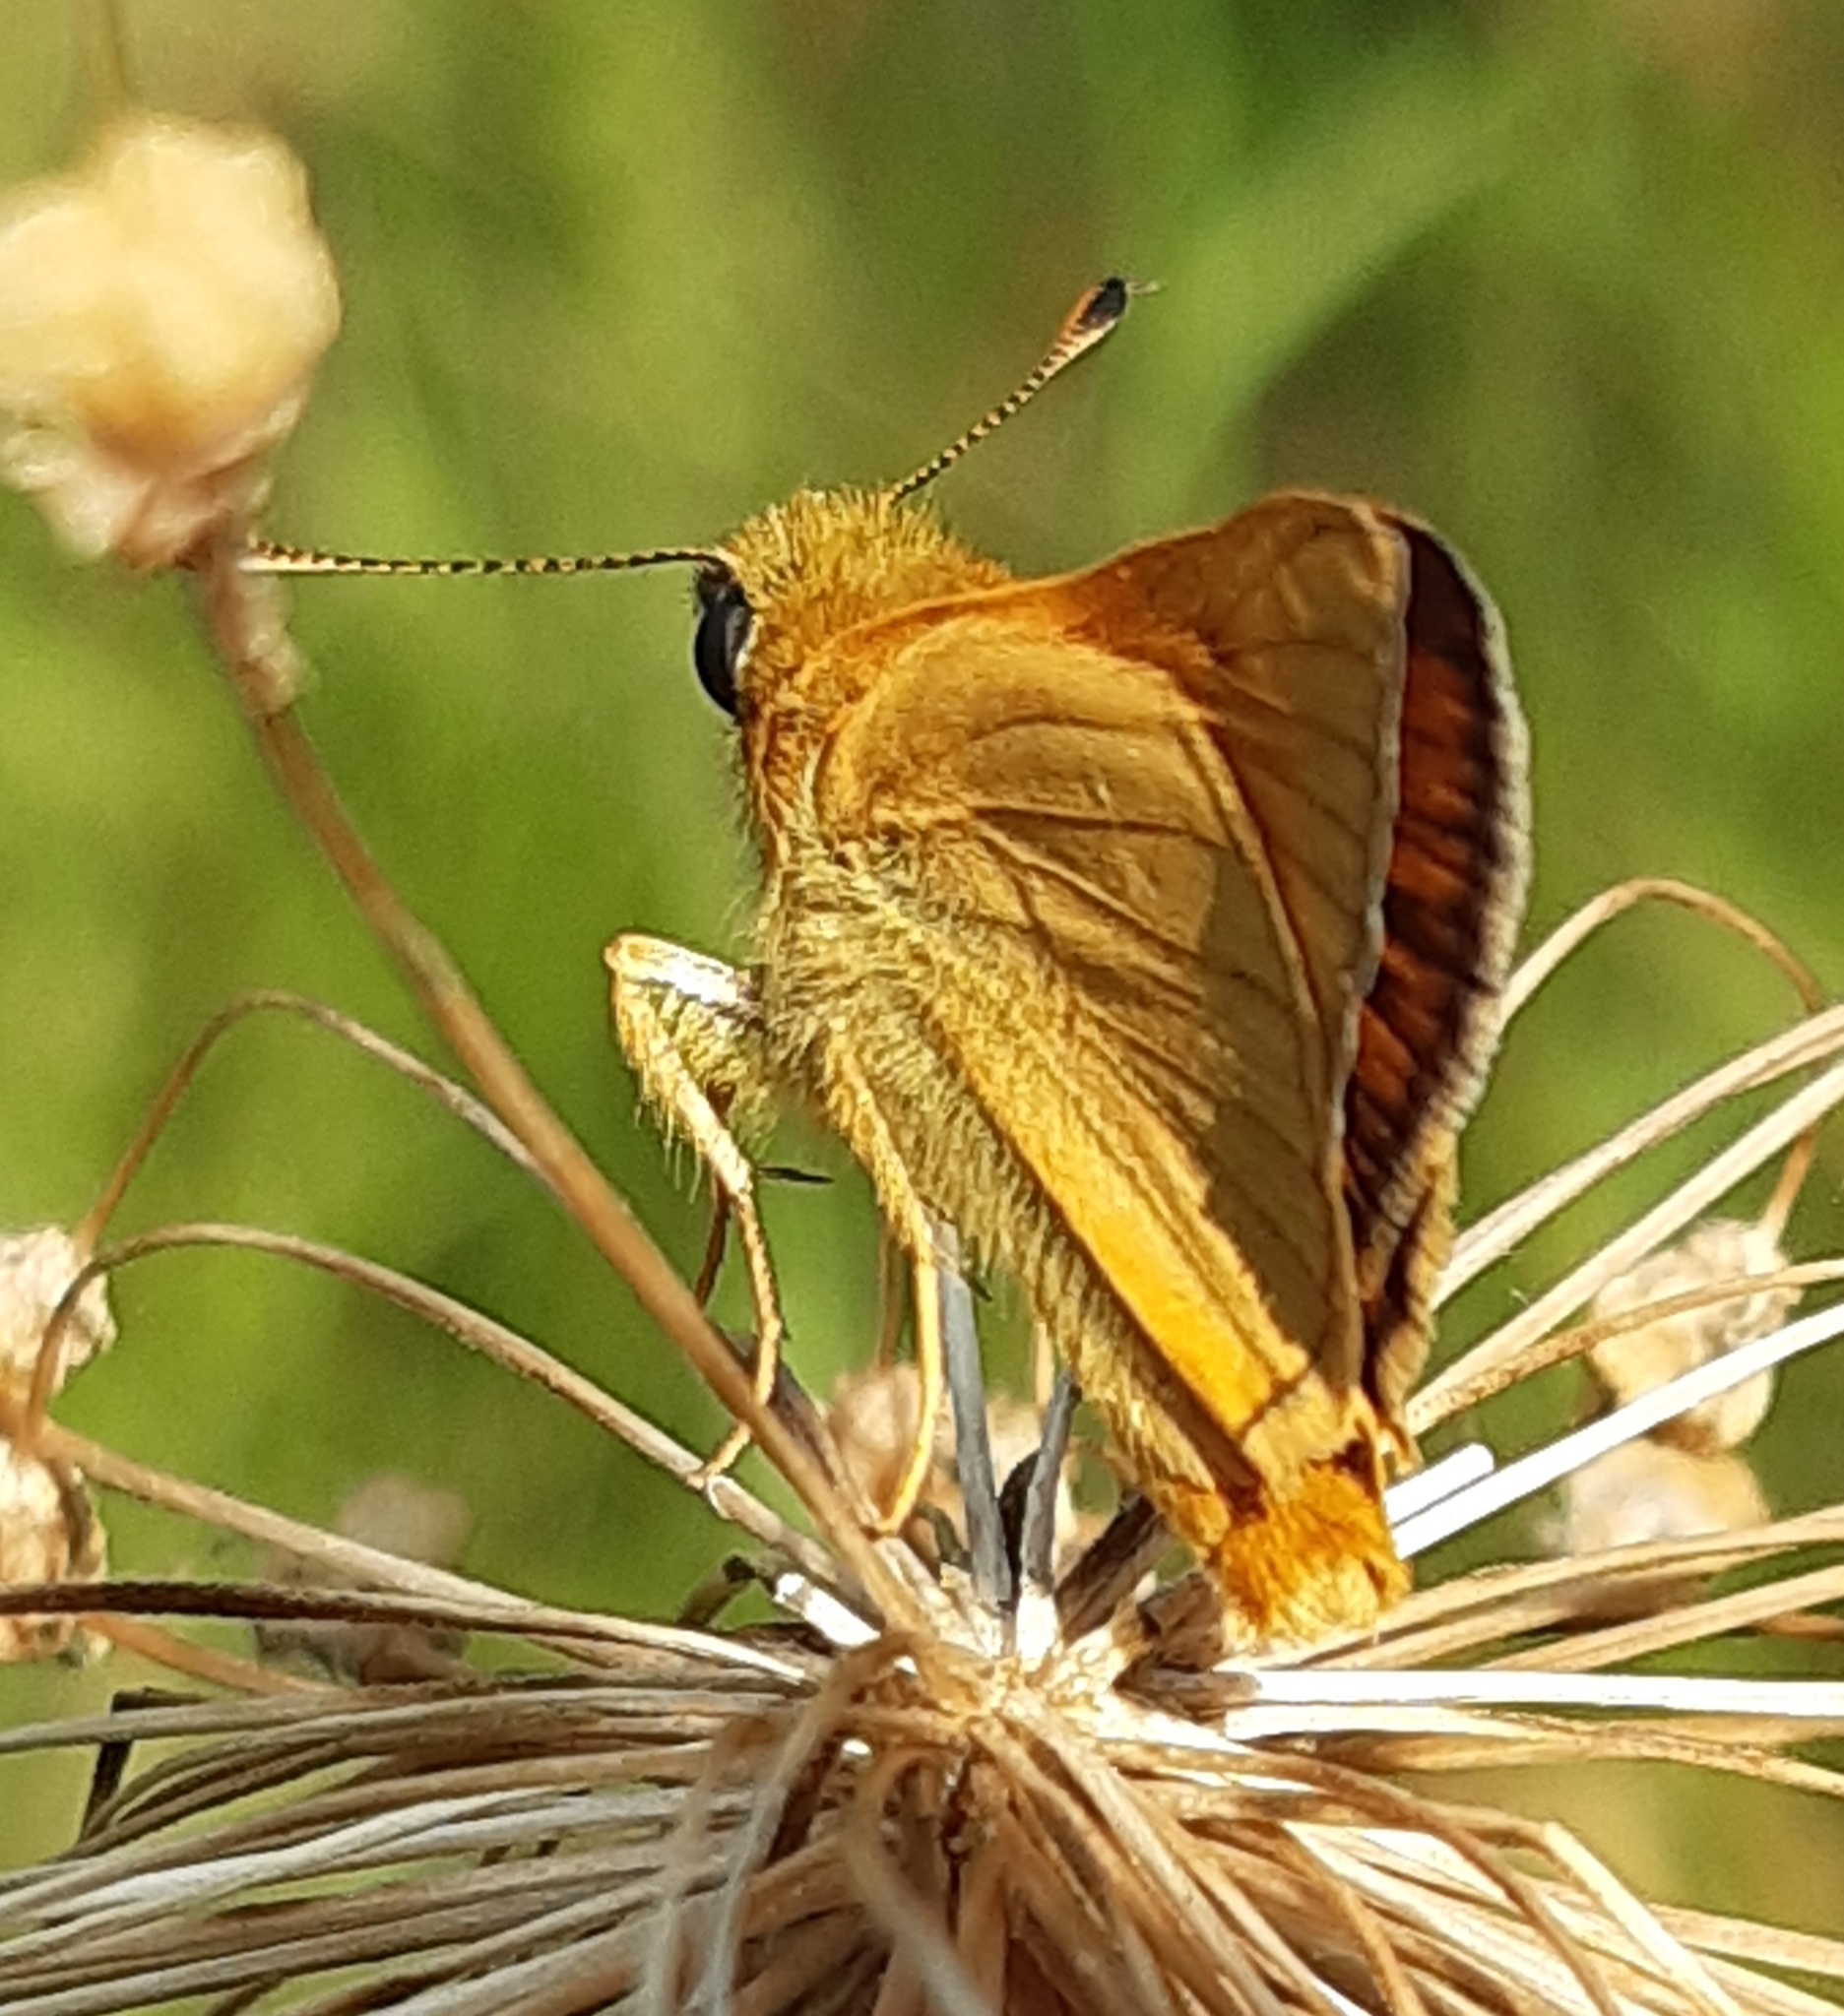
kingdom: Animalia
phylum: Arthropoda
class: Insecta
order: Lepidoptera
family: Hesperiidae
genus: Ochlodes
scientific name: Ochlodes venata
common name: Large skipper
